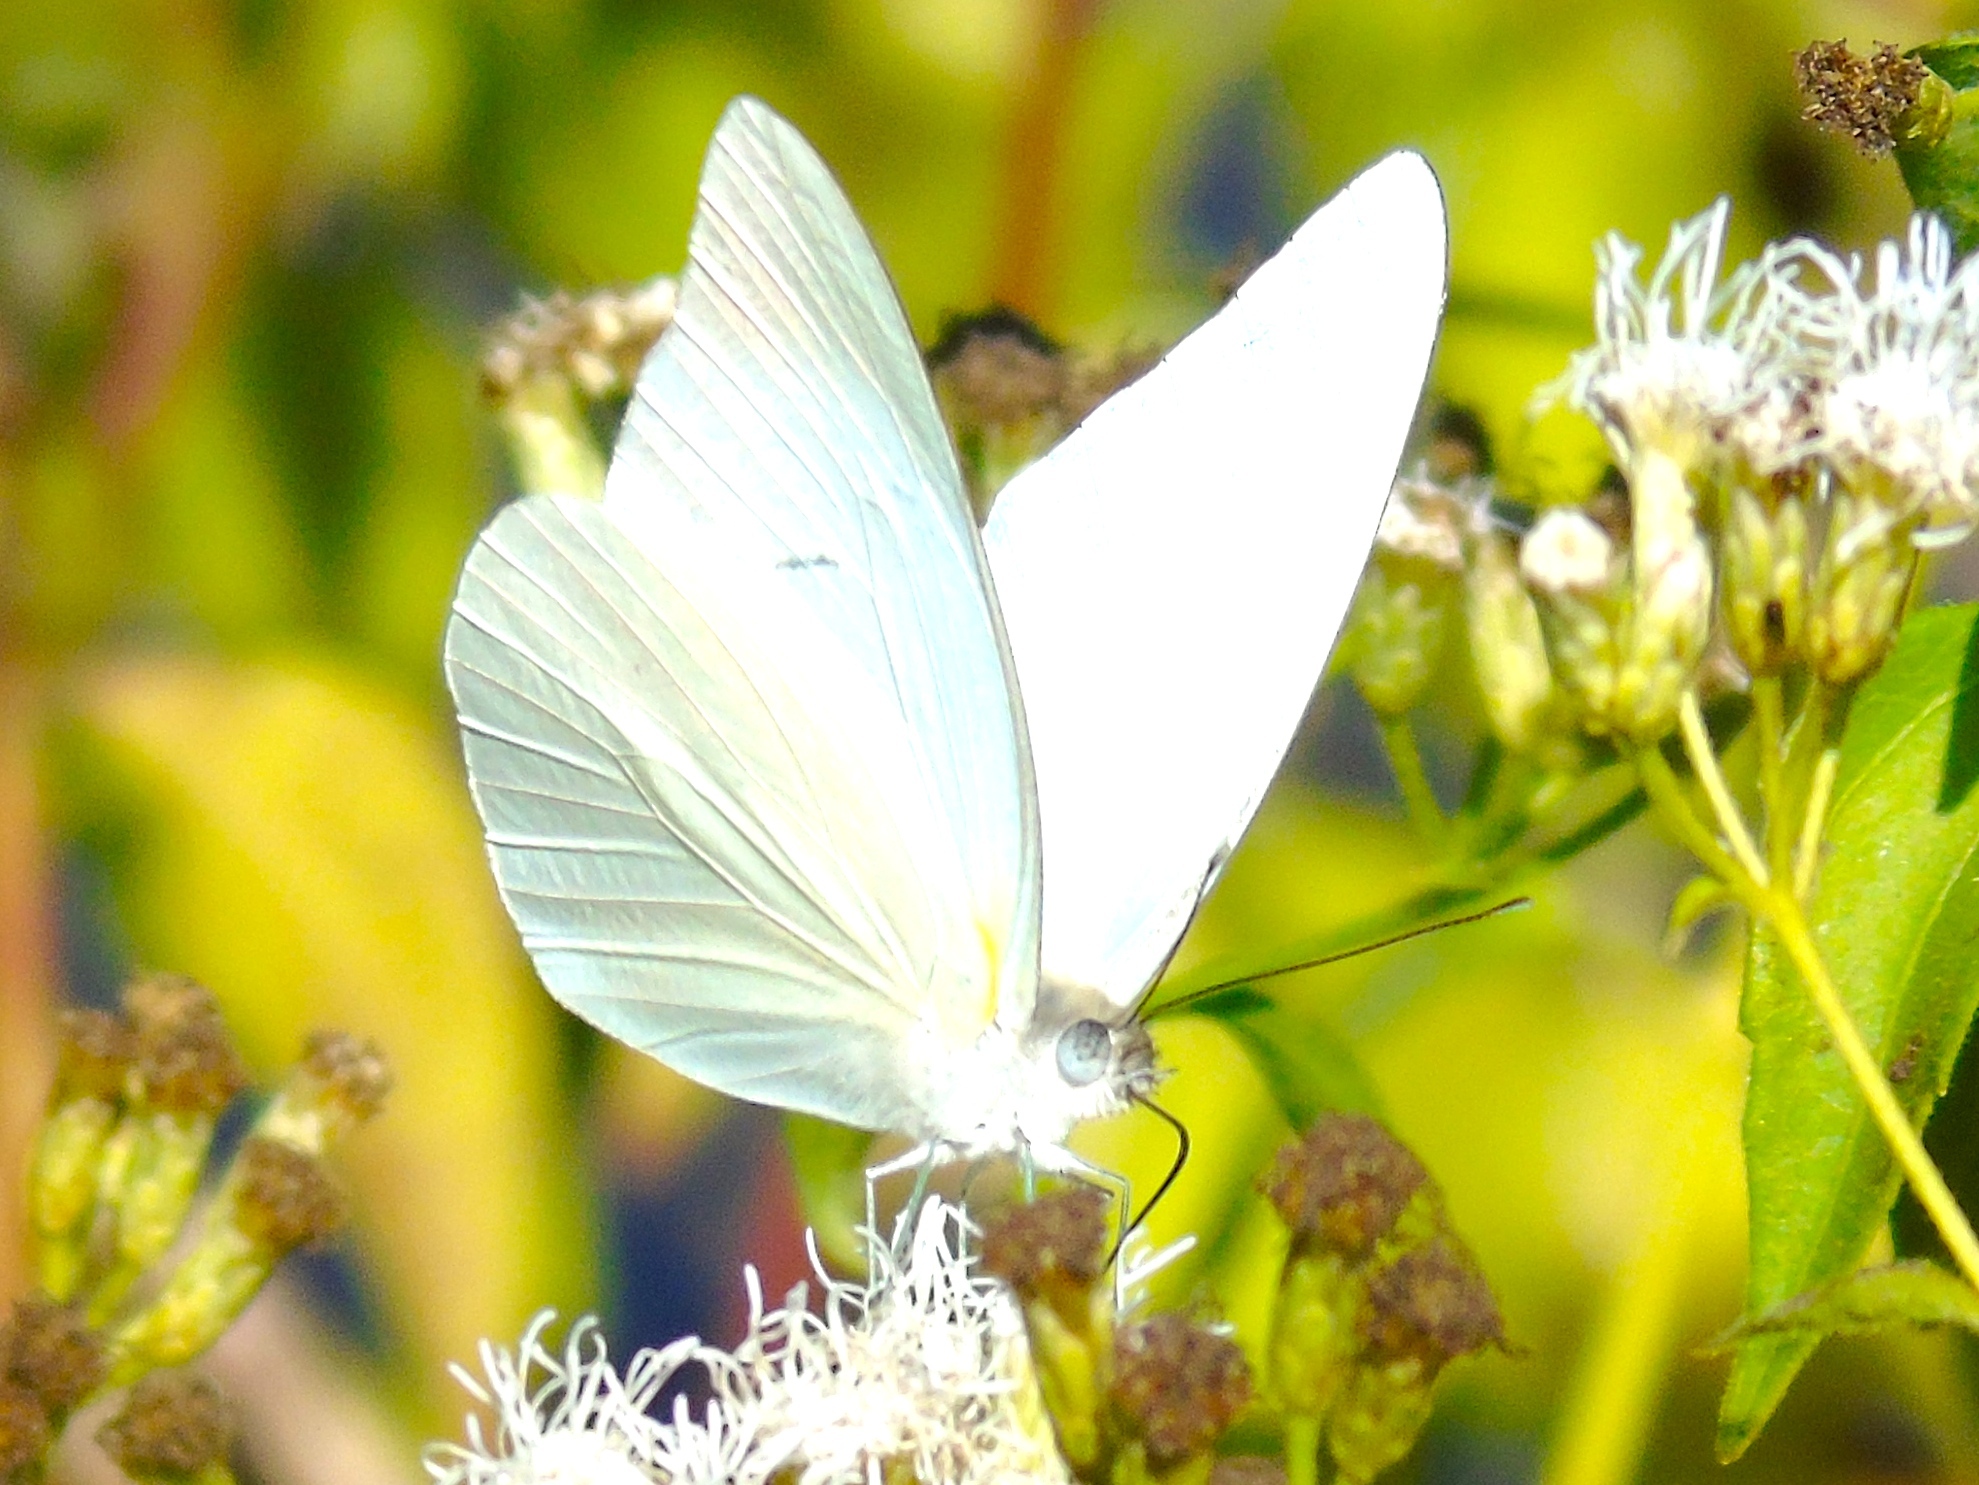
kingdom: Animalia
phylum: Arthropoda
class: Insecta
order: Lepidoptera
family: Pieridae
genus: Glutophrissa
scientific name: Glutophrissa drusilla
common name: Florida white
